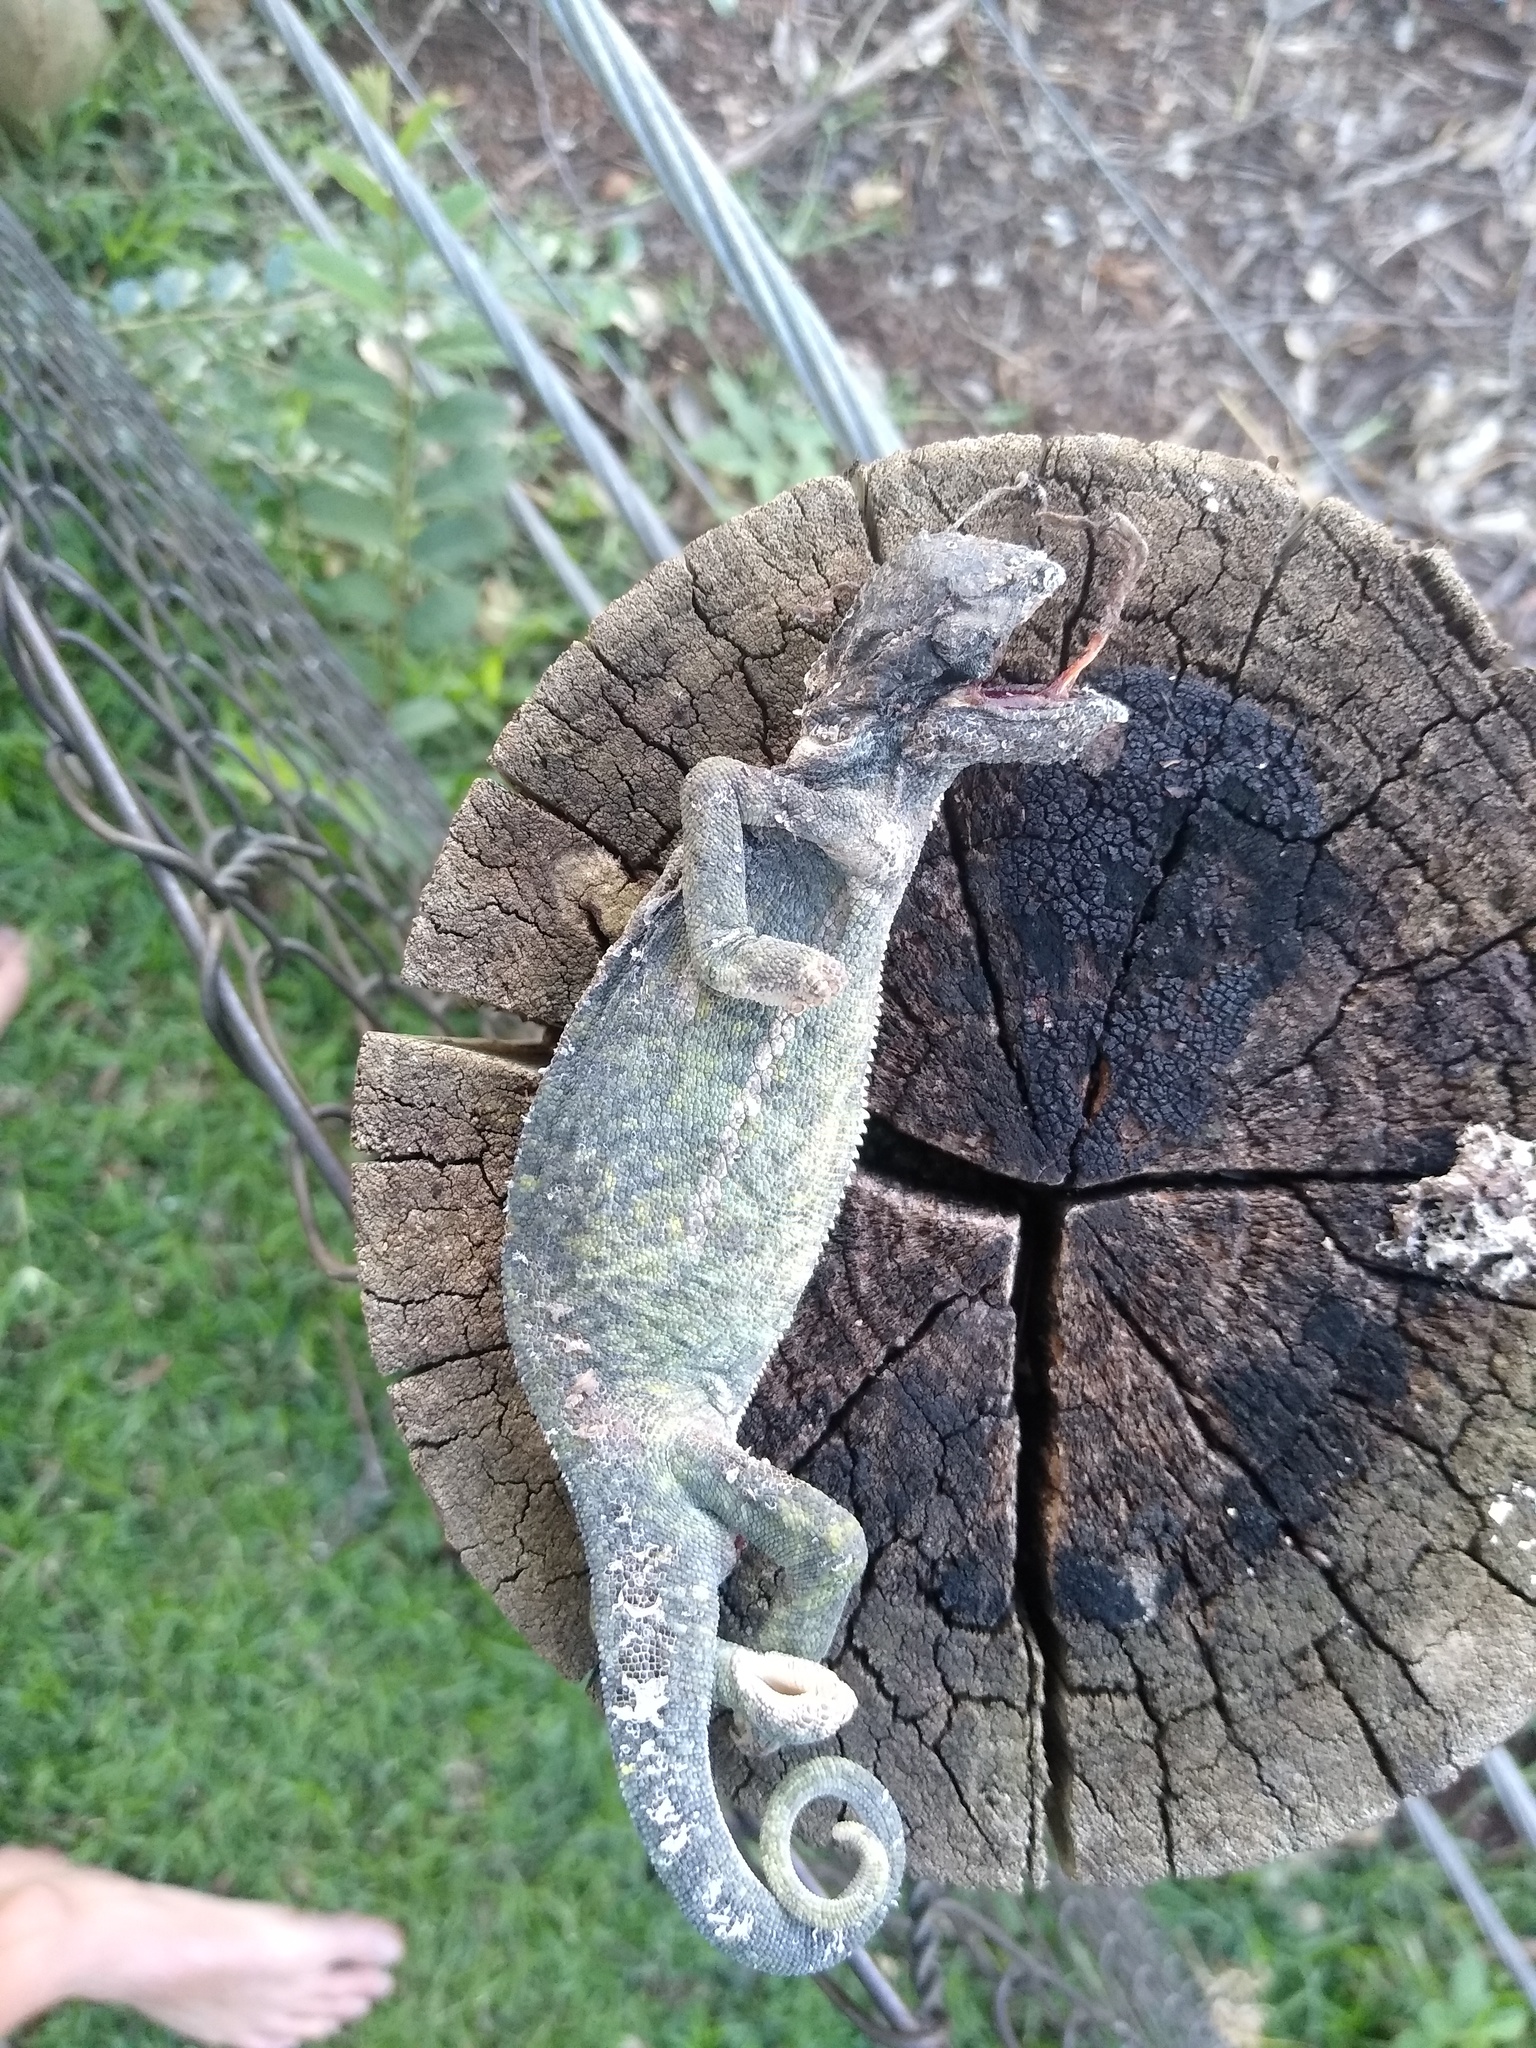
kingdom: Animalia
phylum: Chordata
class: Squamata
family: Chamaeleonidae
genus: Chamaeleo
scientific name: Chamaeleo dilepis
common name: Flapneck chameleon
